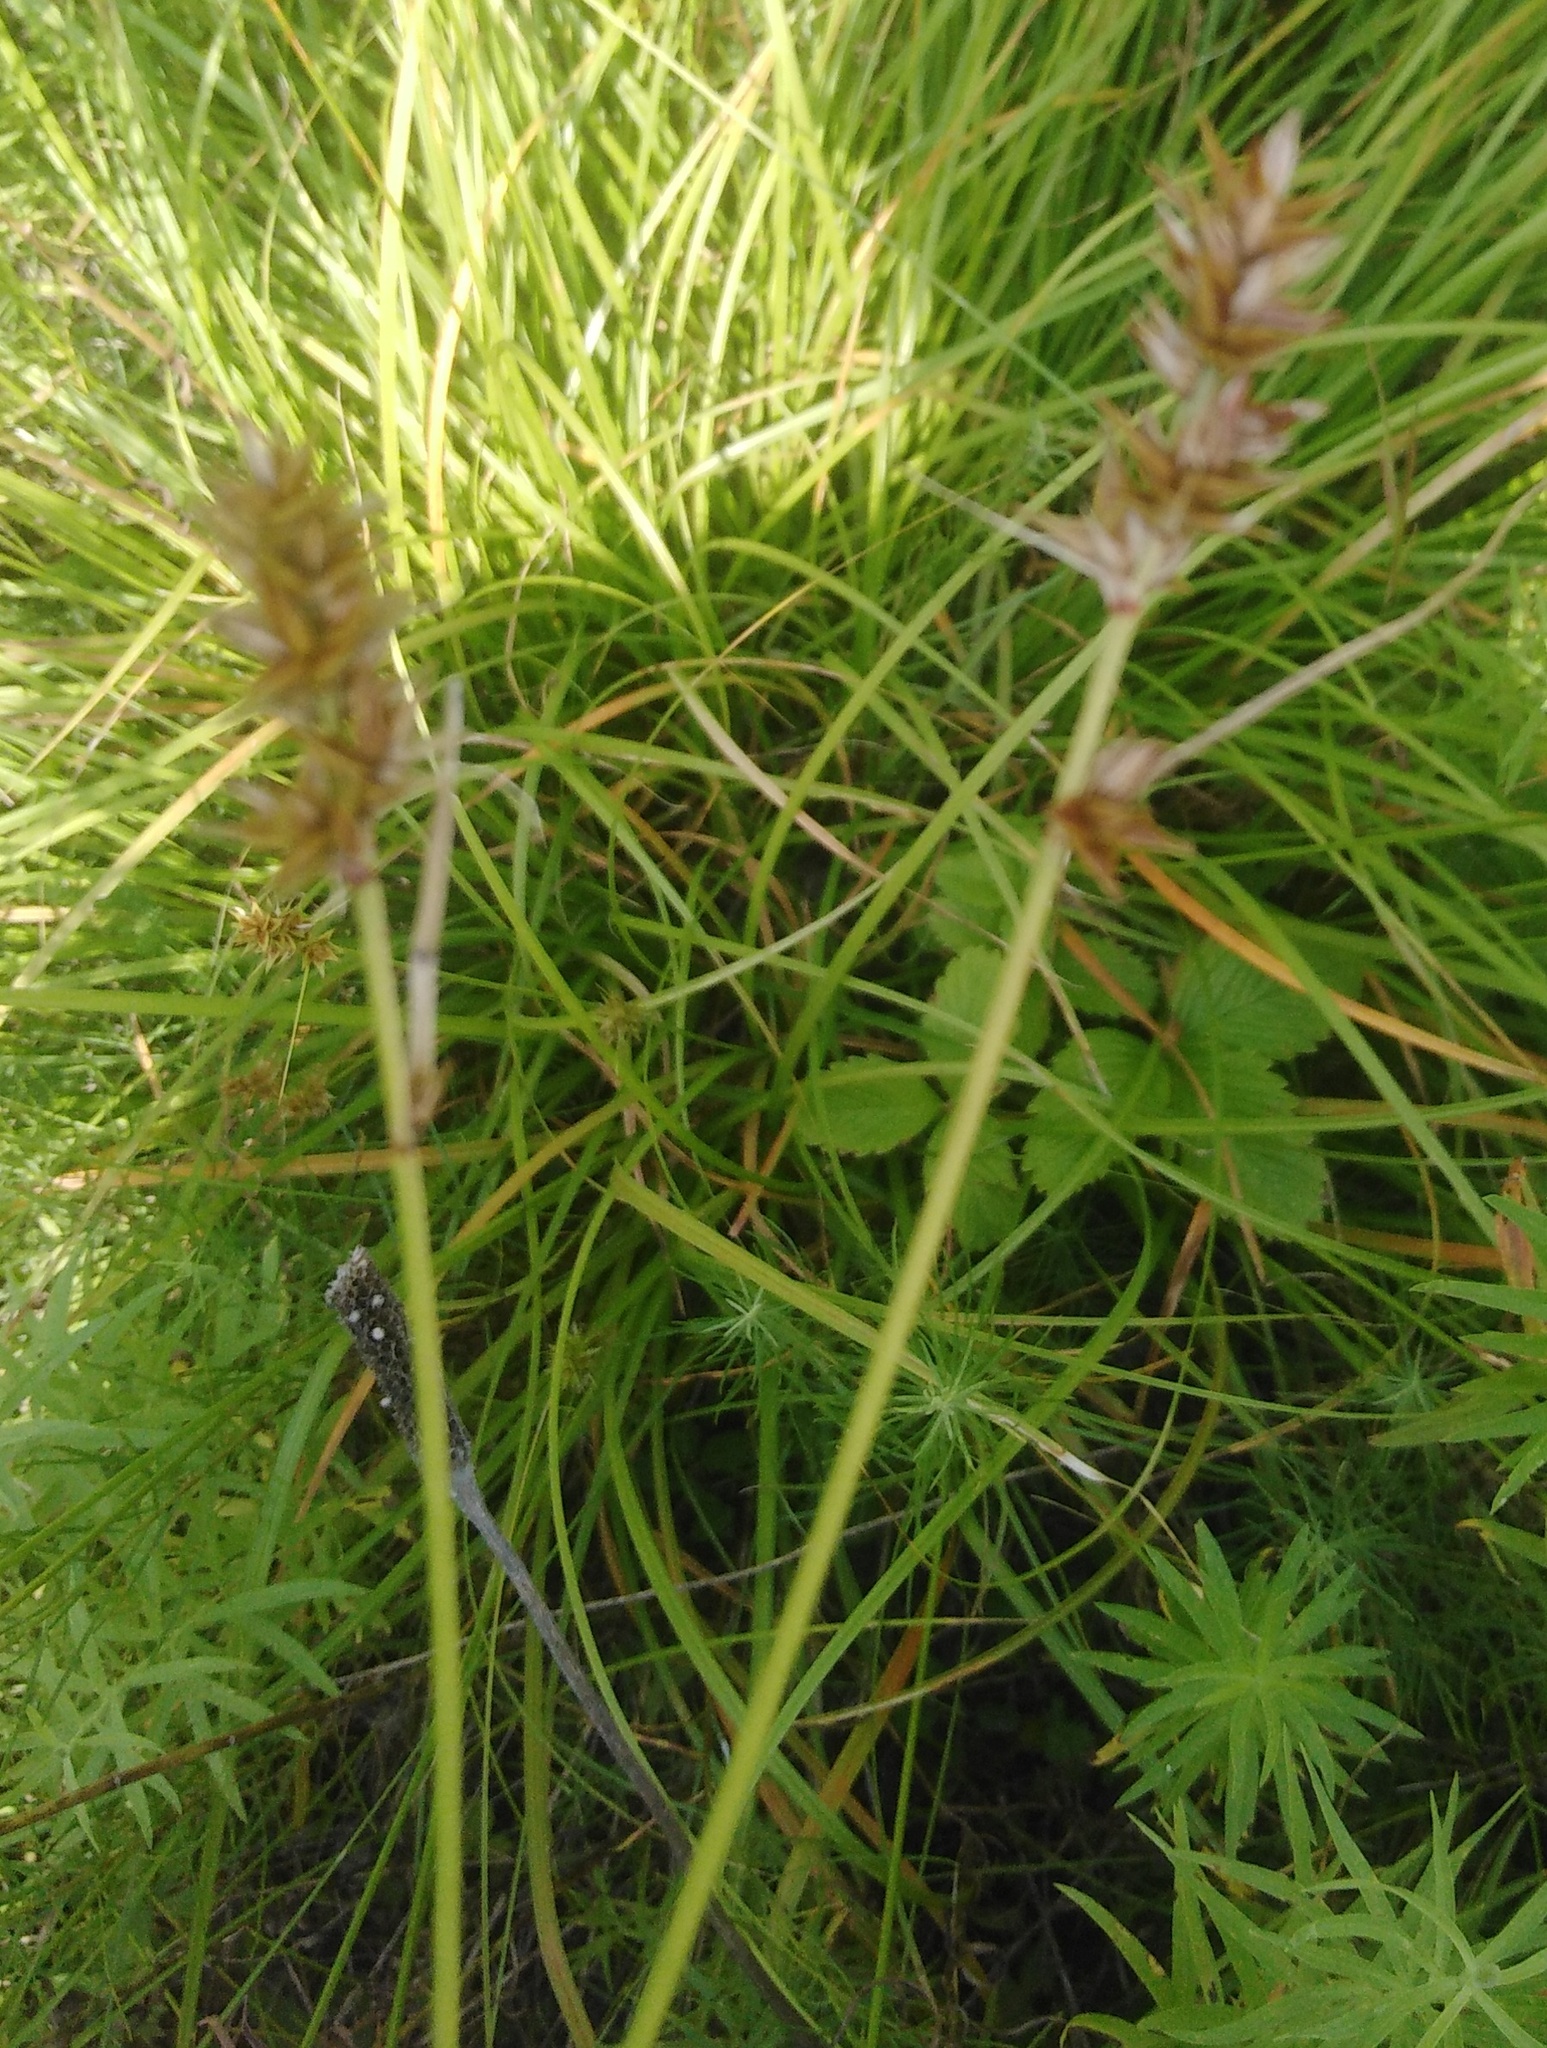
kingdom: Plantae
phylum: Tracheophyta
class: Liliopsida
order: Poales
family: Cyperaceae
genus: Carex
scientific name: Carex spicata
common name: Spiked sedge
